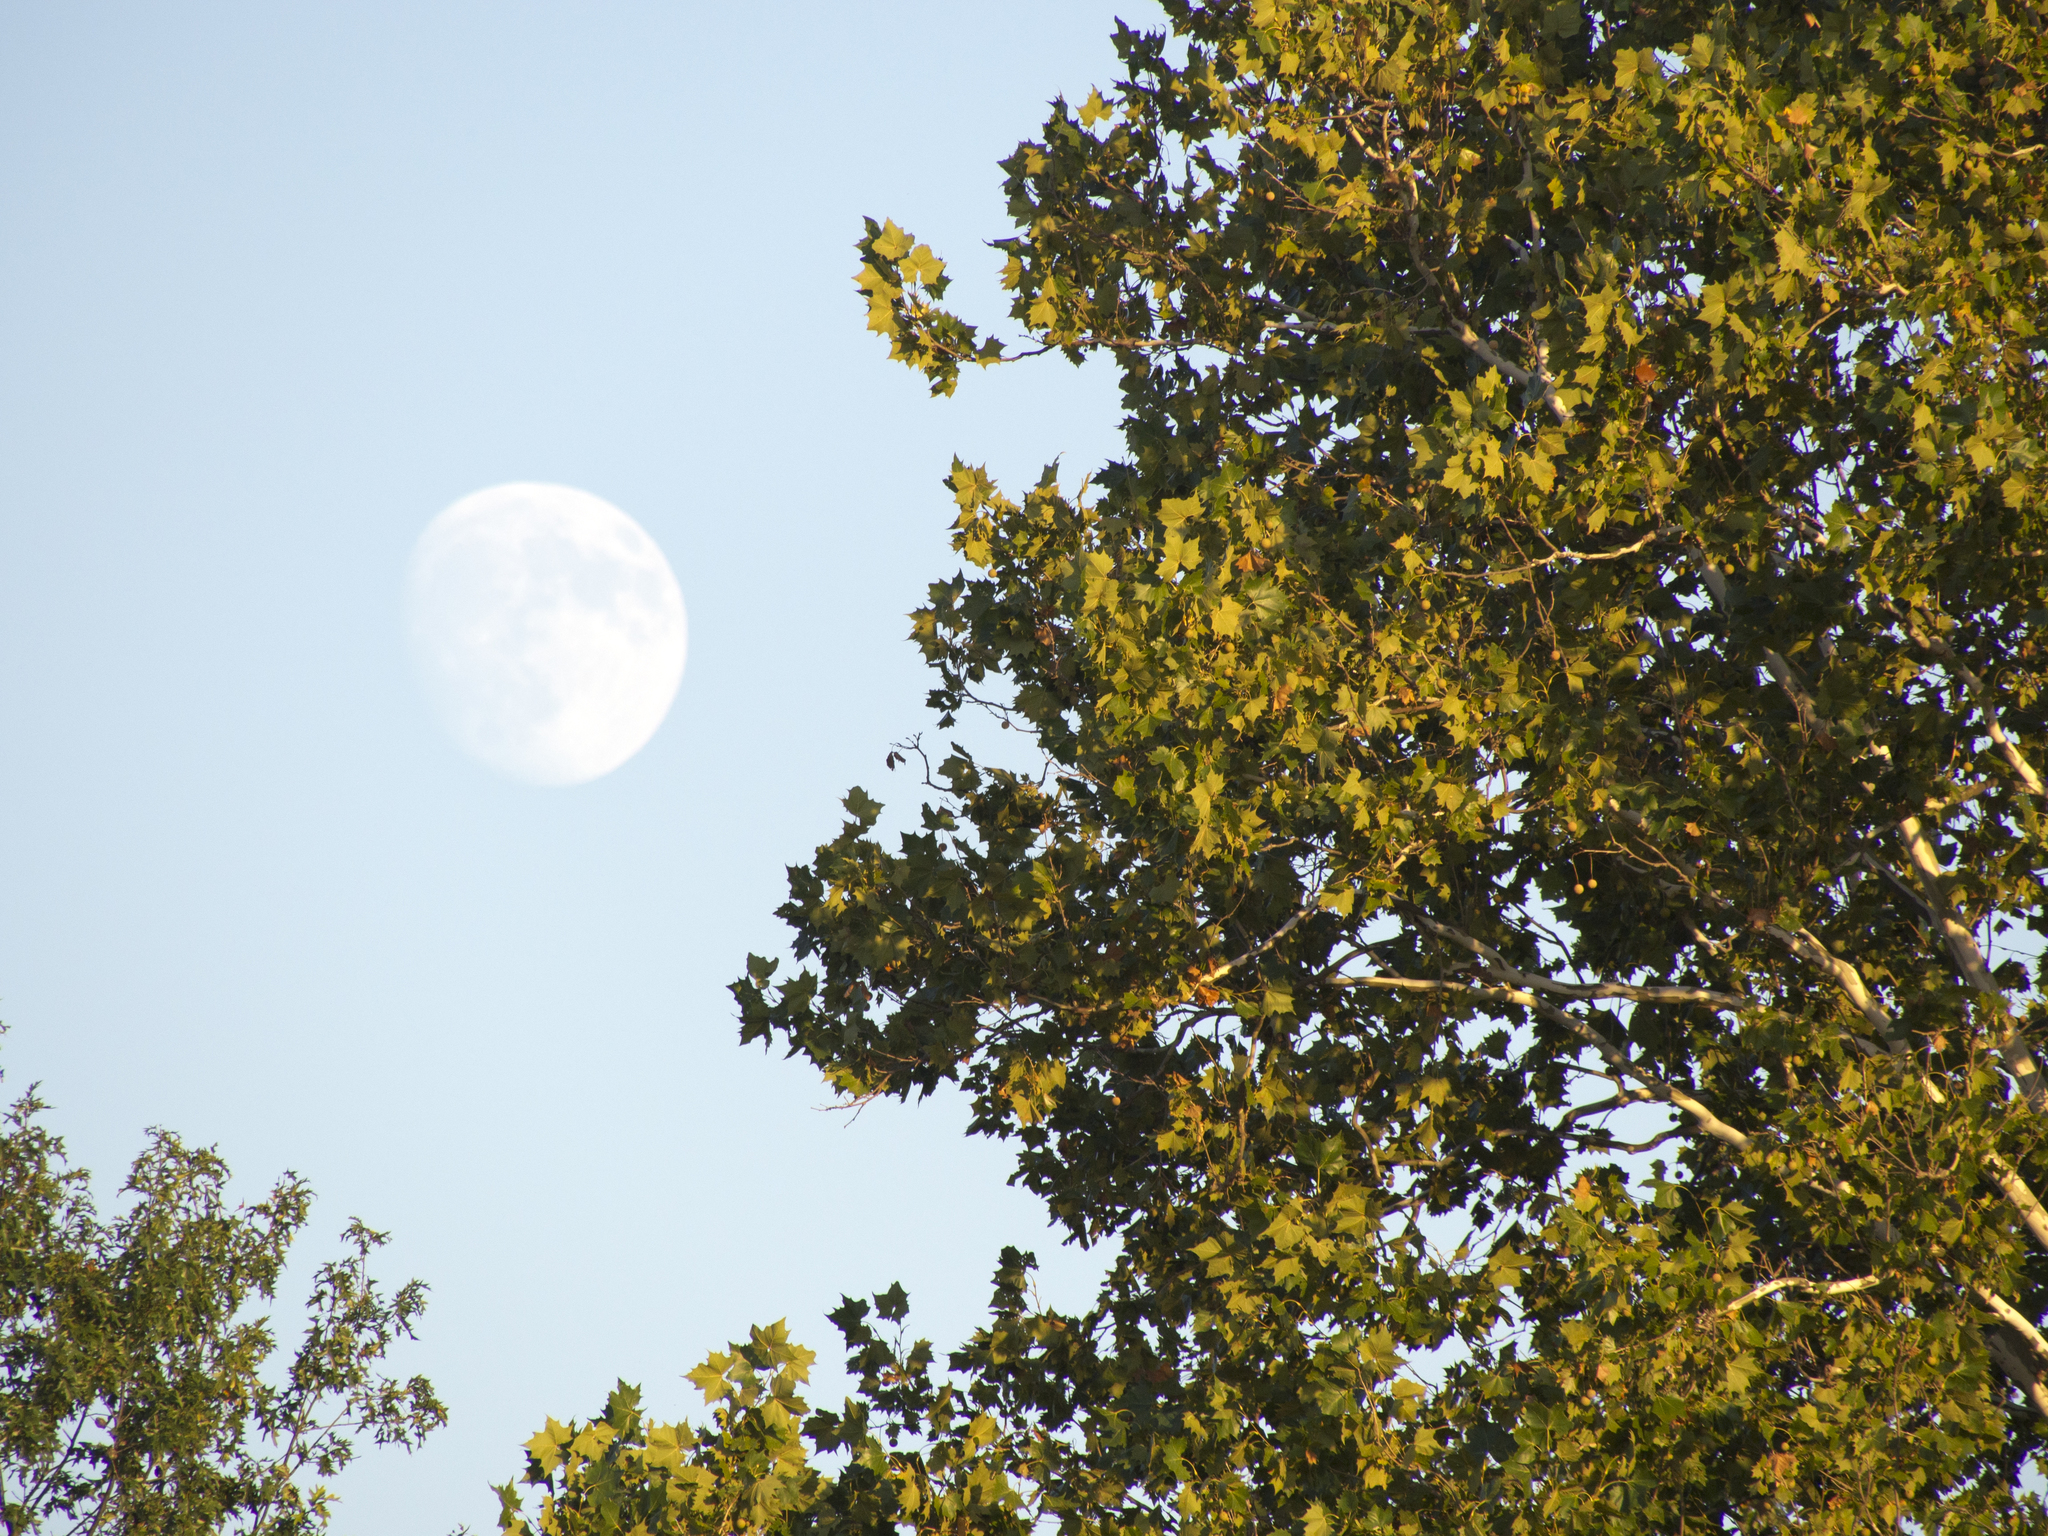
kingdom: Plantae
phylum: Tracheophyta
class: Magnoliopsida
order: Proteales
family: Platanaceae
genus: Platanus
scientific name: Platanus occidentalis
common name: American sycamore
